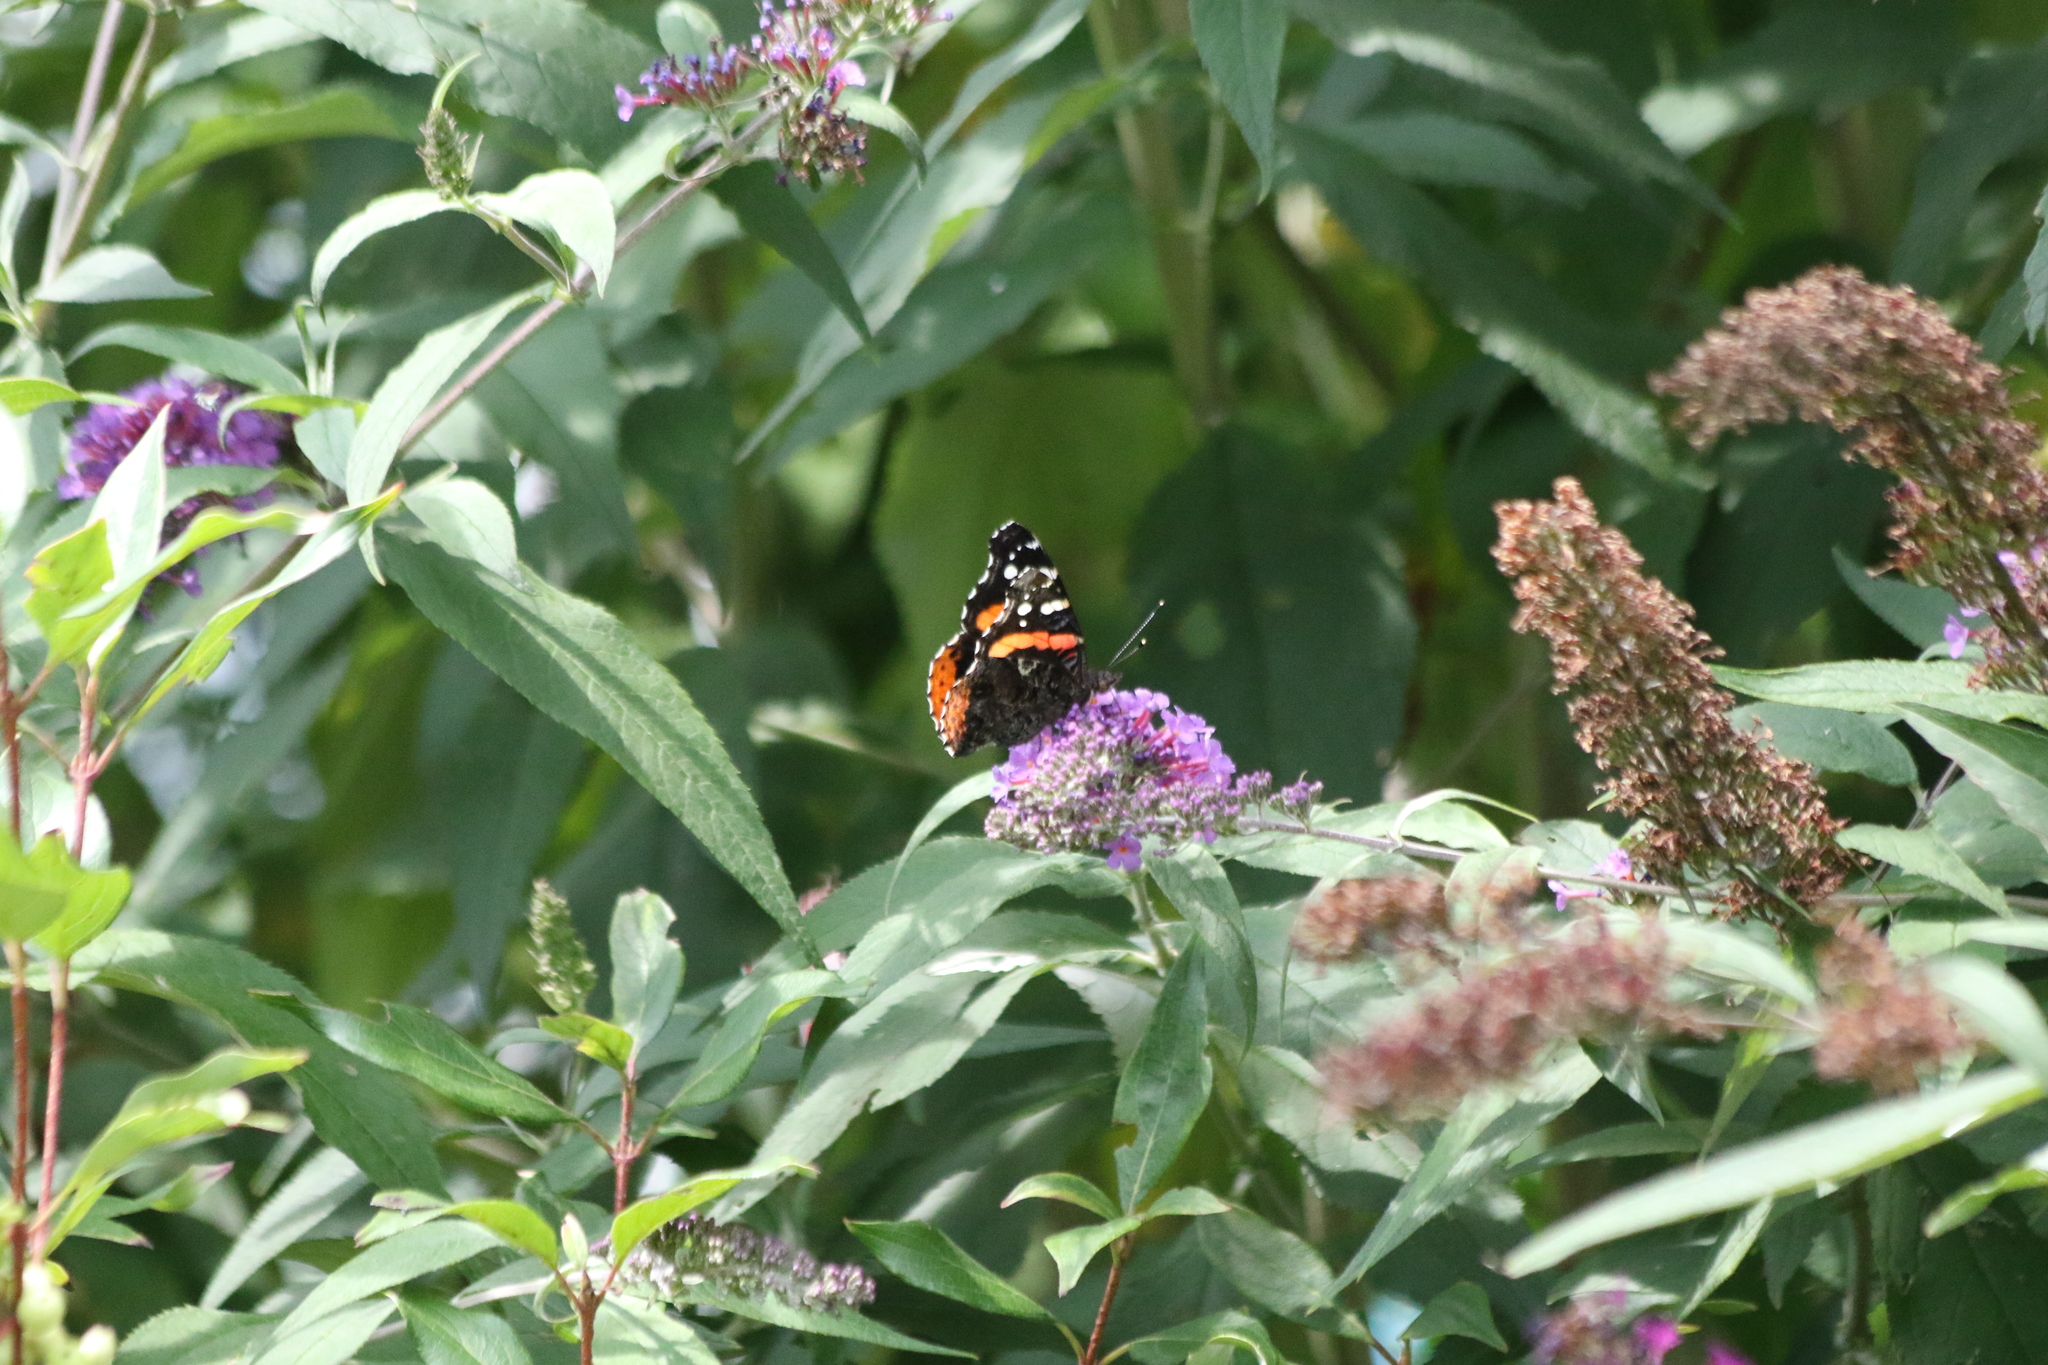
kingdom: Animalia
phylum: Arthropoda
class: Insecta
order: Lepidoptera
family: Nymphalidae
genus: Vanessa
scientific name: Vanessa atalanta
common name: Red admiral
